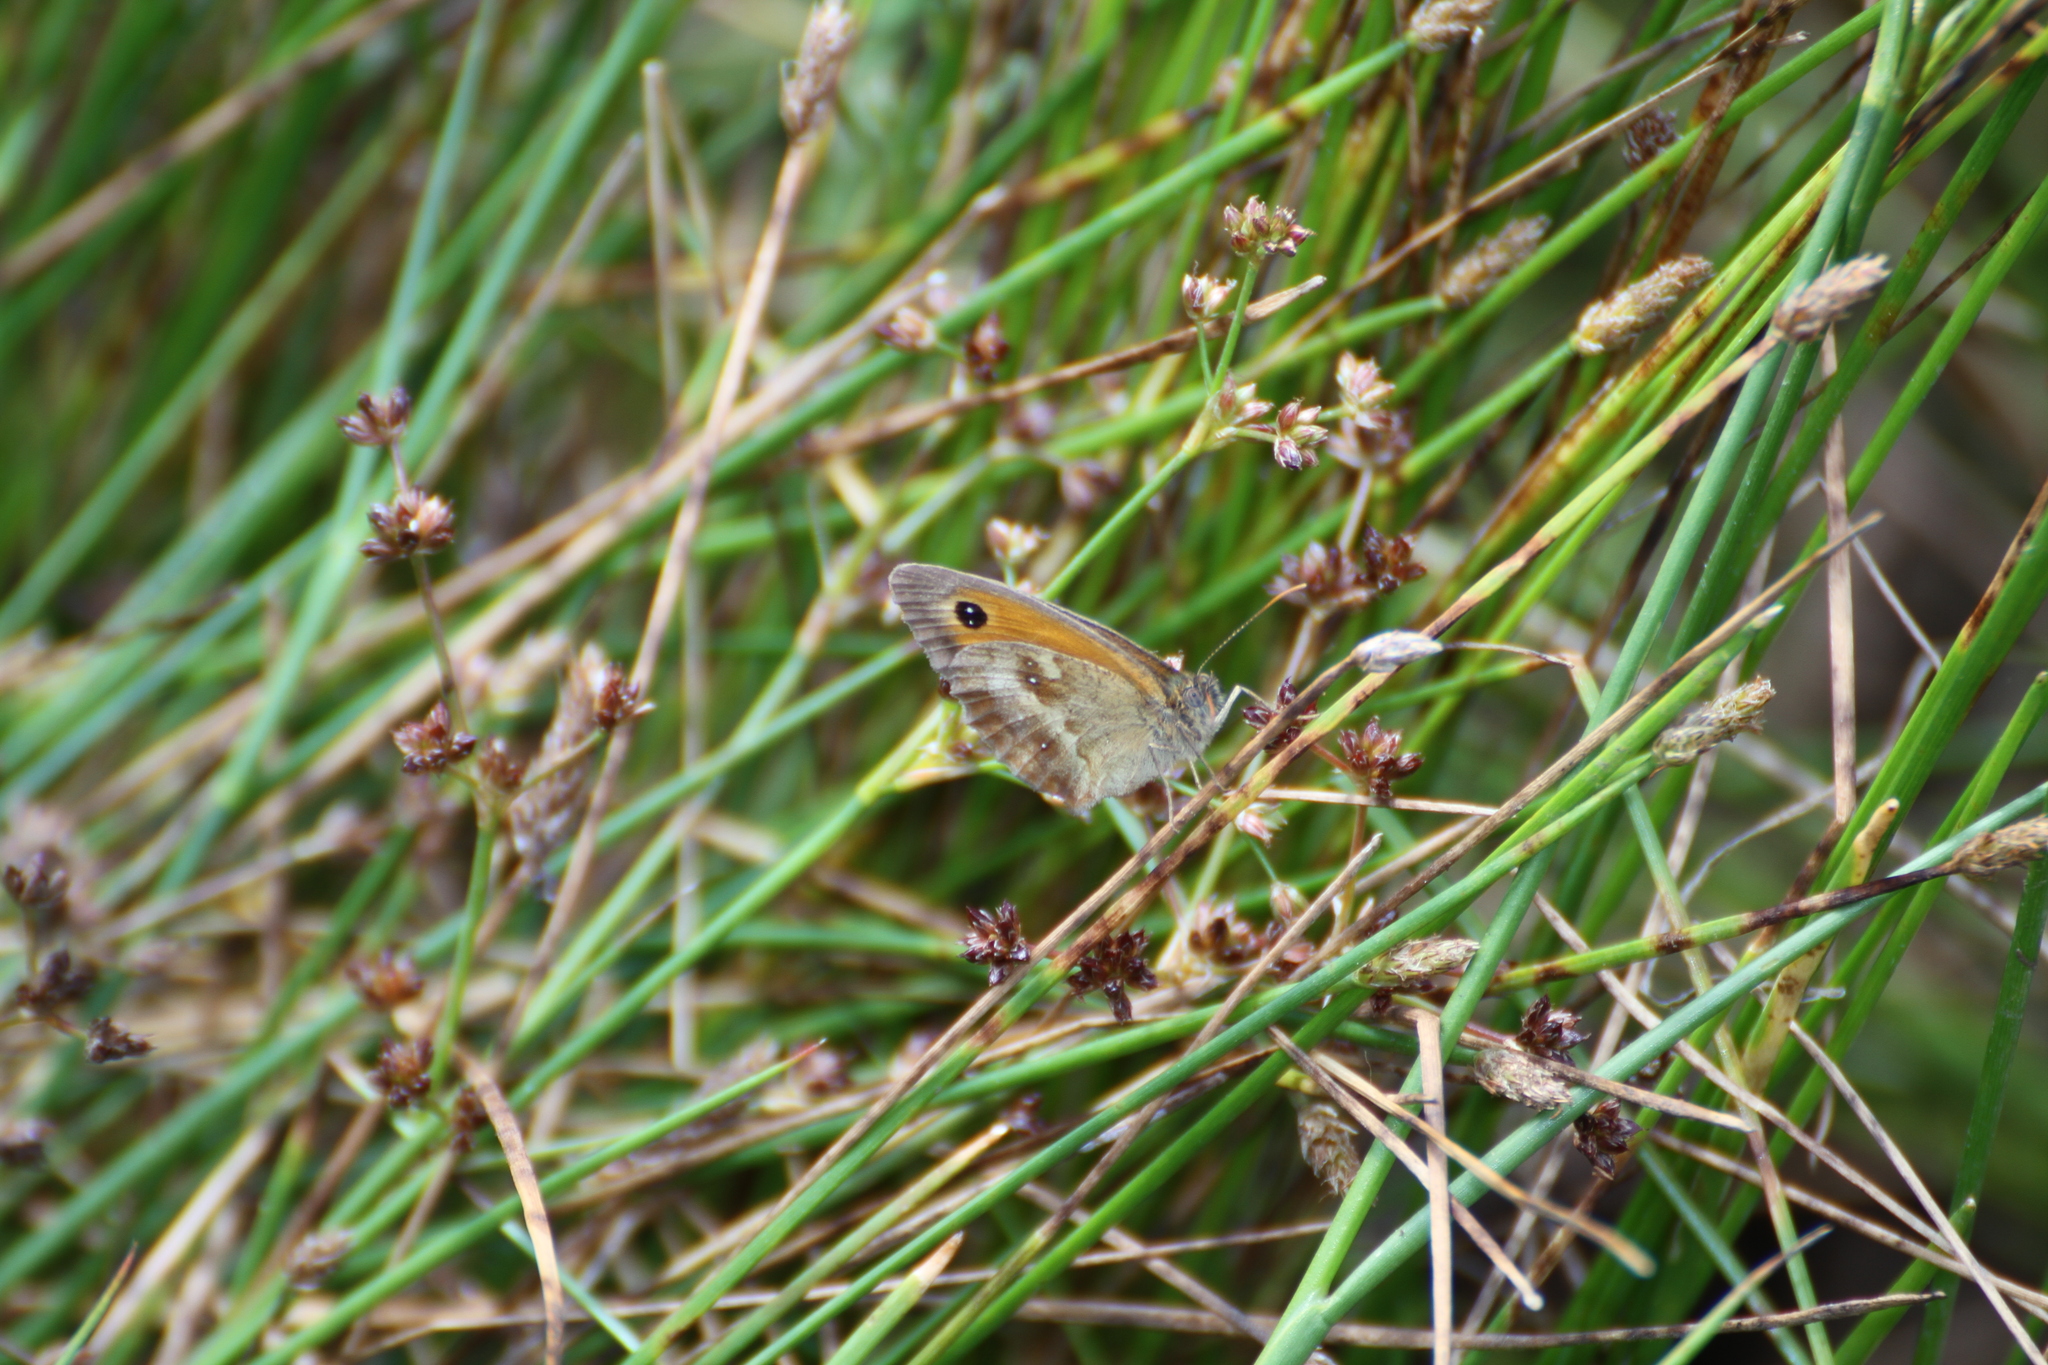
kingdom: Animalia
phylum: Arthropoda
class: Insecta
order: Lepidoptera
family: Nymphalidae
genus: Pyronia
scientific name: Pyronia tithonus
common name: Gatekeeper
